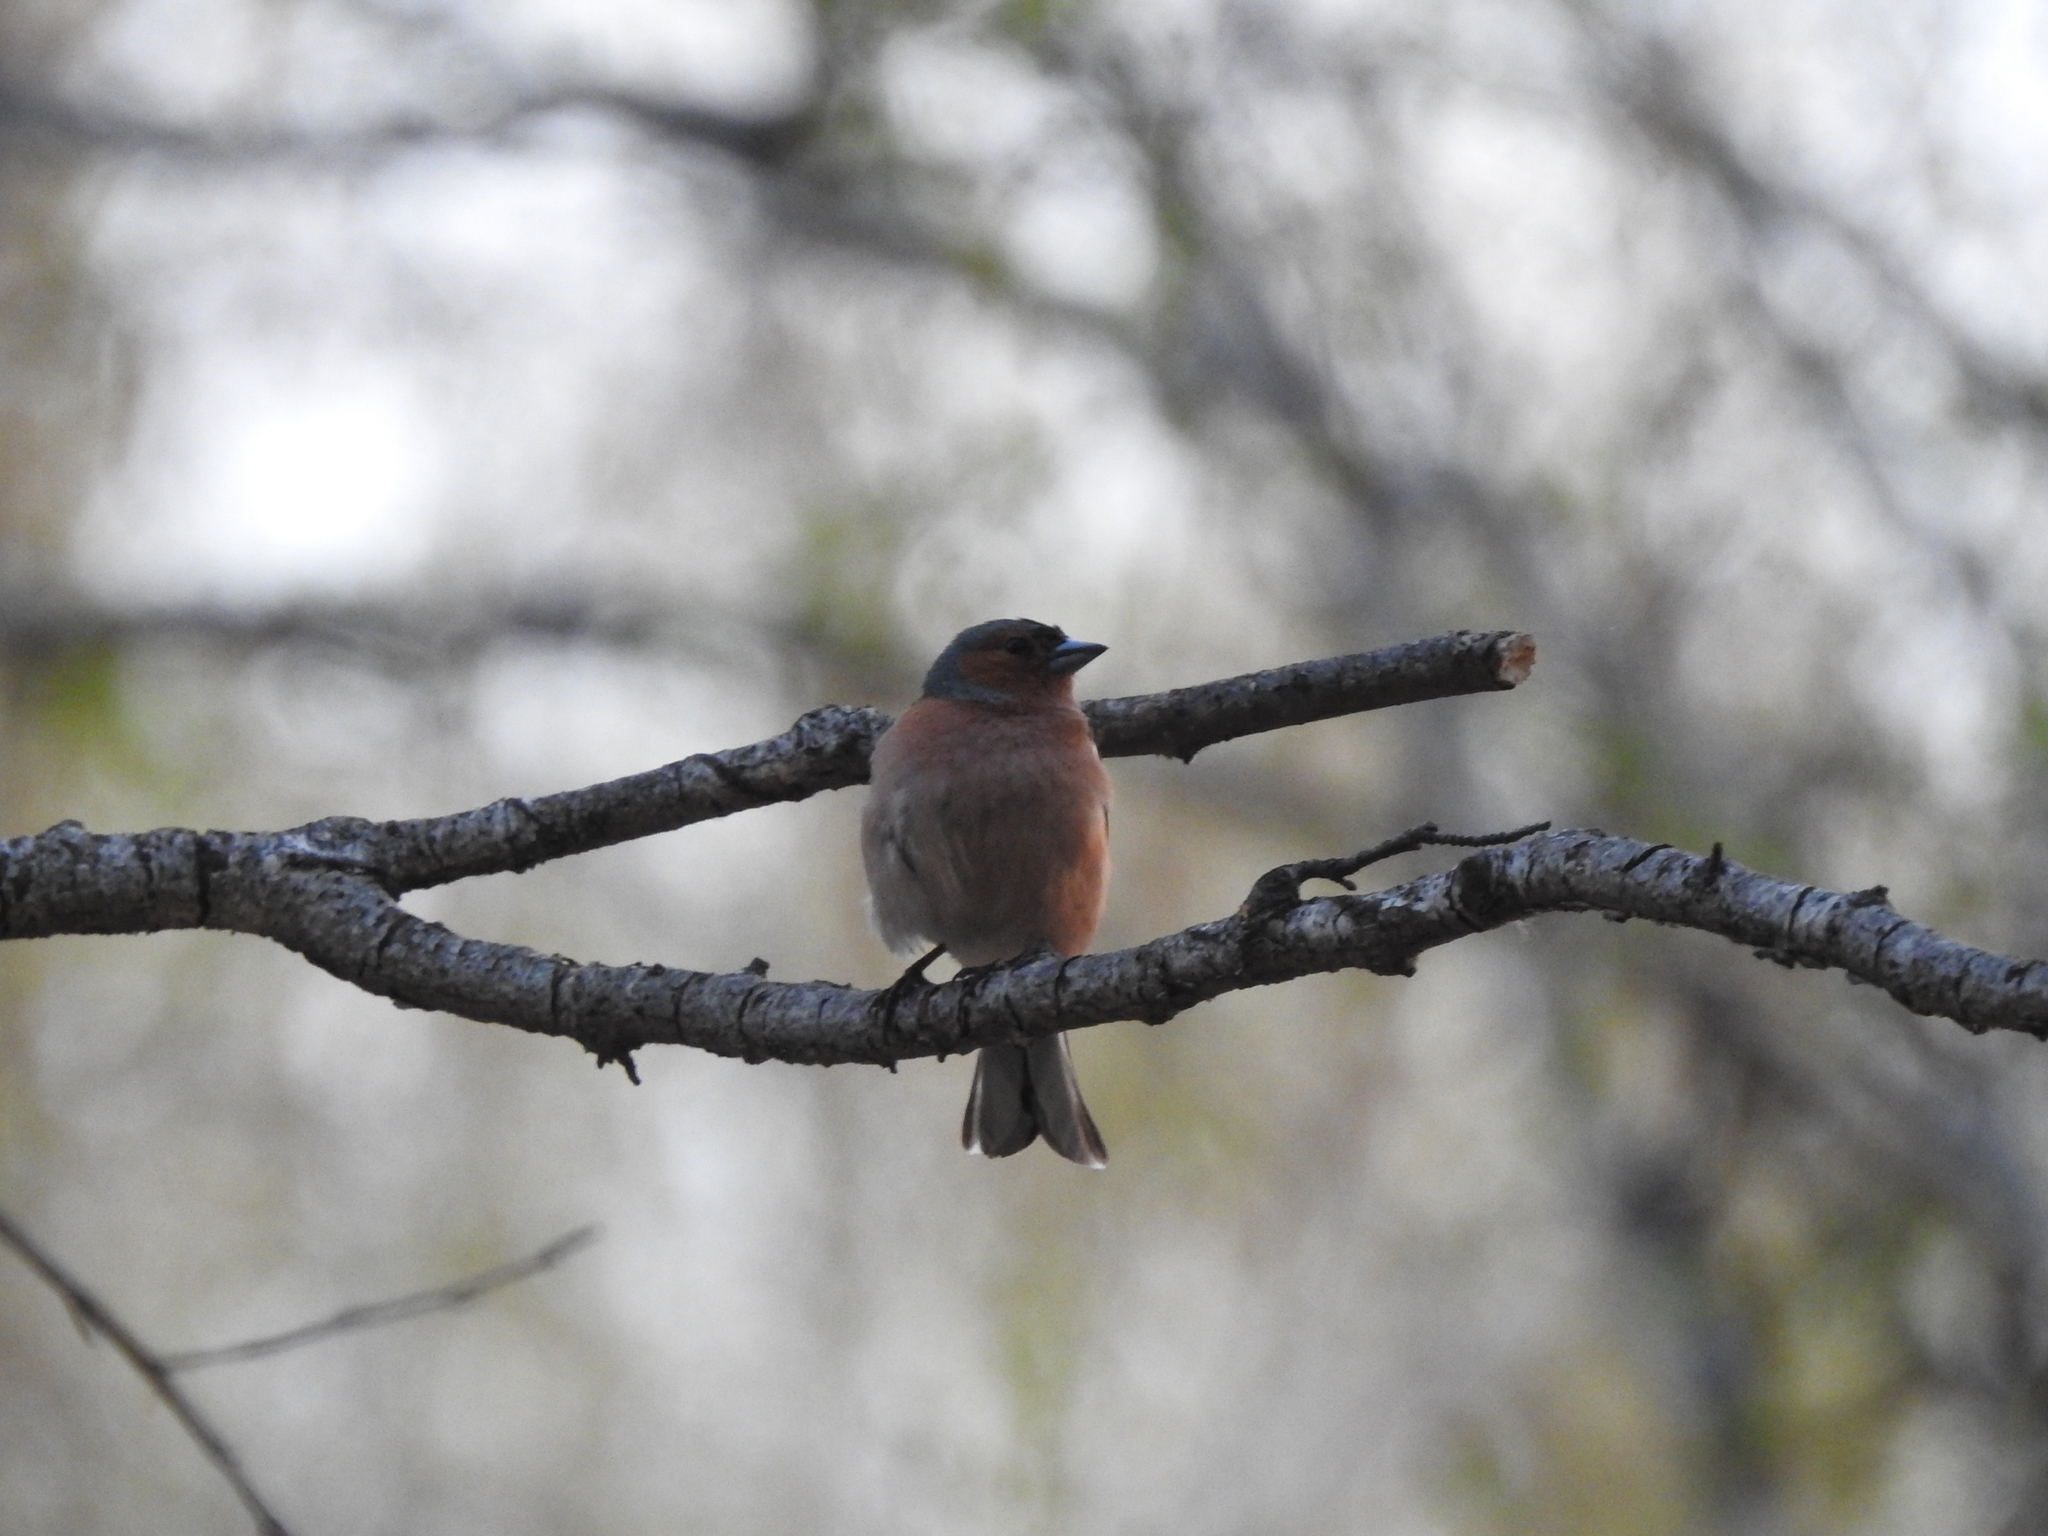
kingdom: Animalia
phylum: Chordata
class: Aves
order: Passeriformes
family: Fringillidae
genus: Fringilla
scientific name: Fringilla coelebs
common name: Common chaffinch
